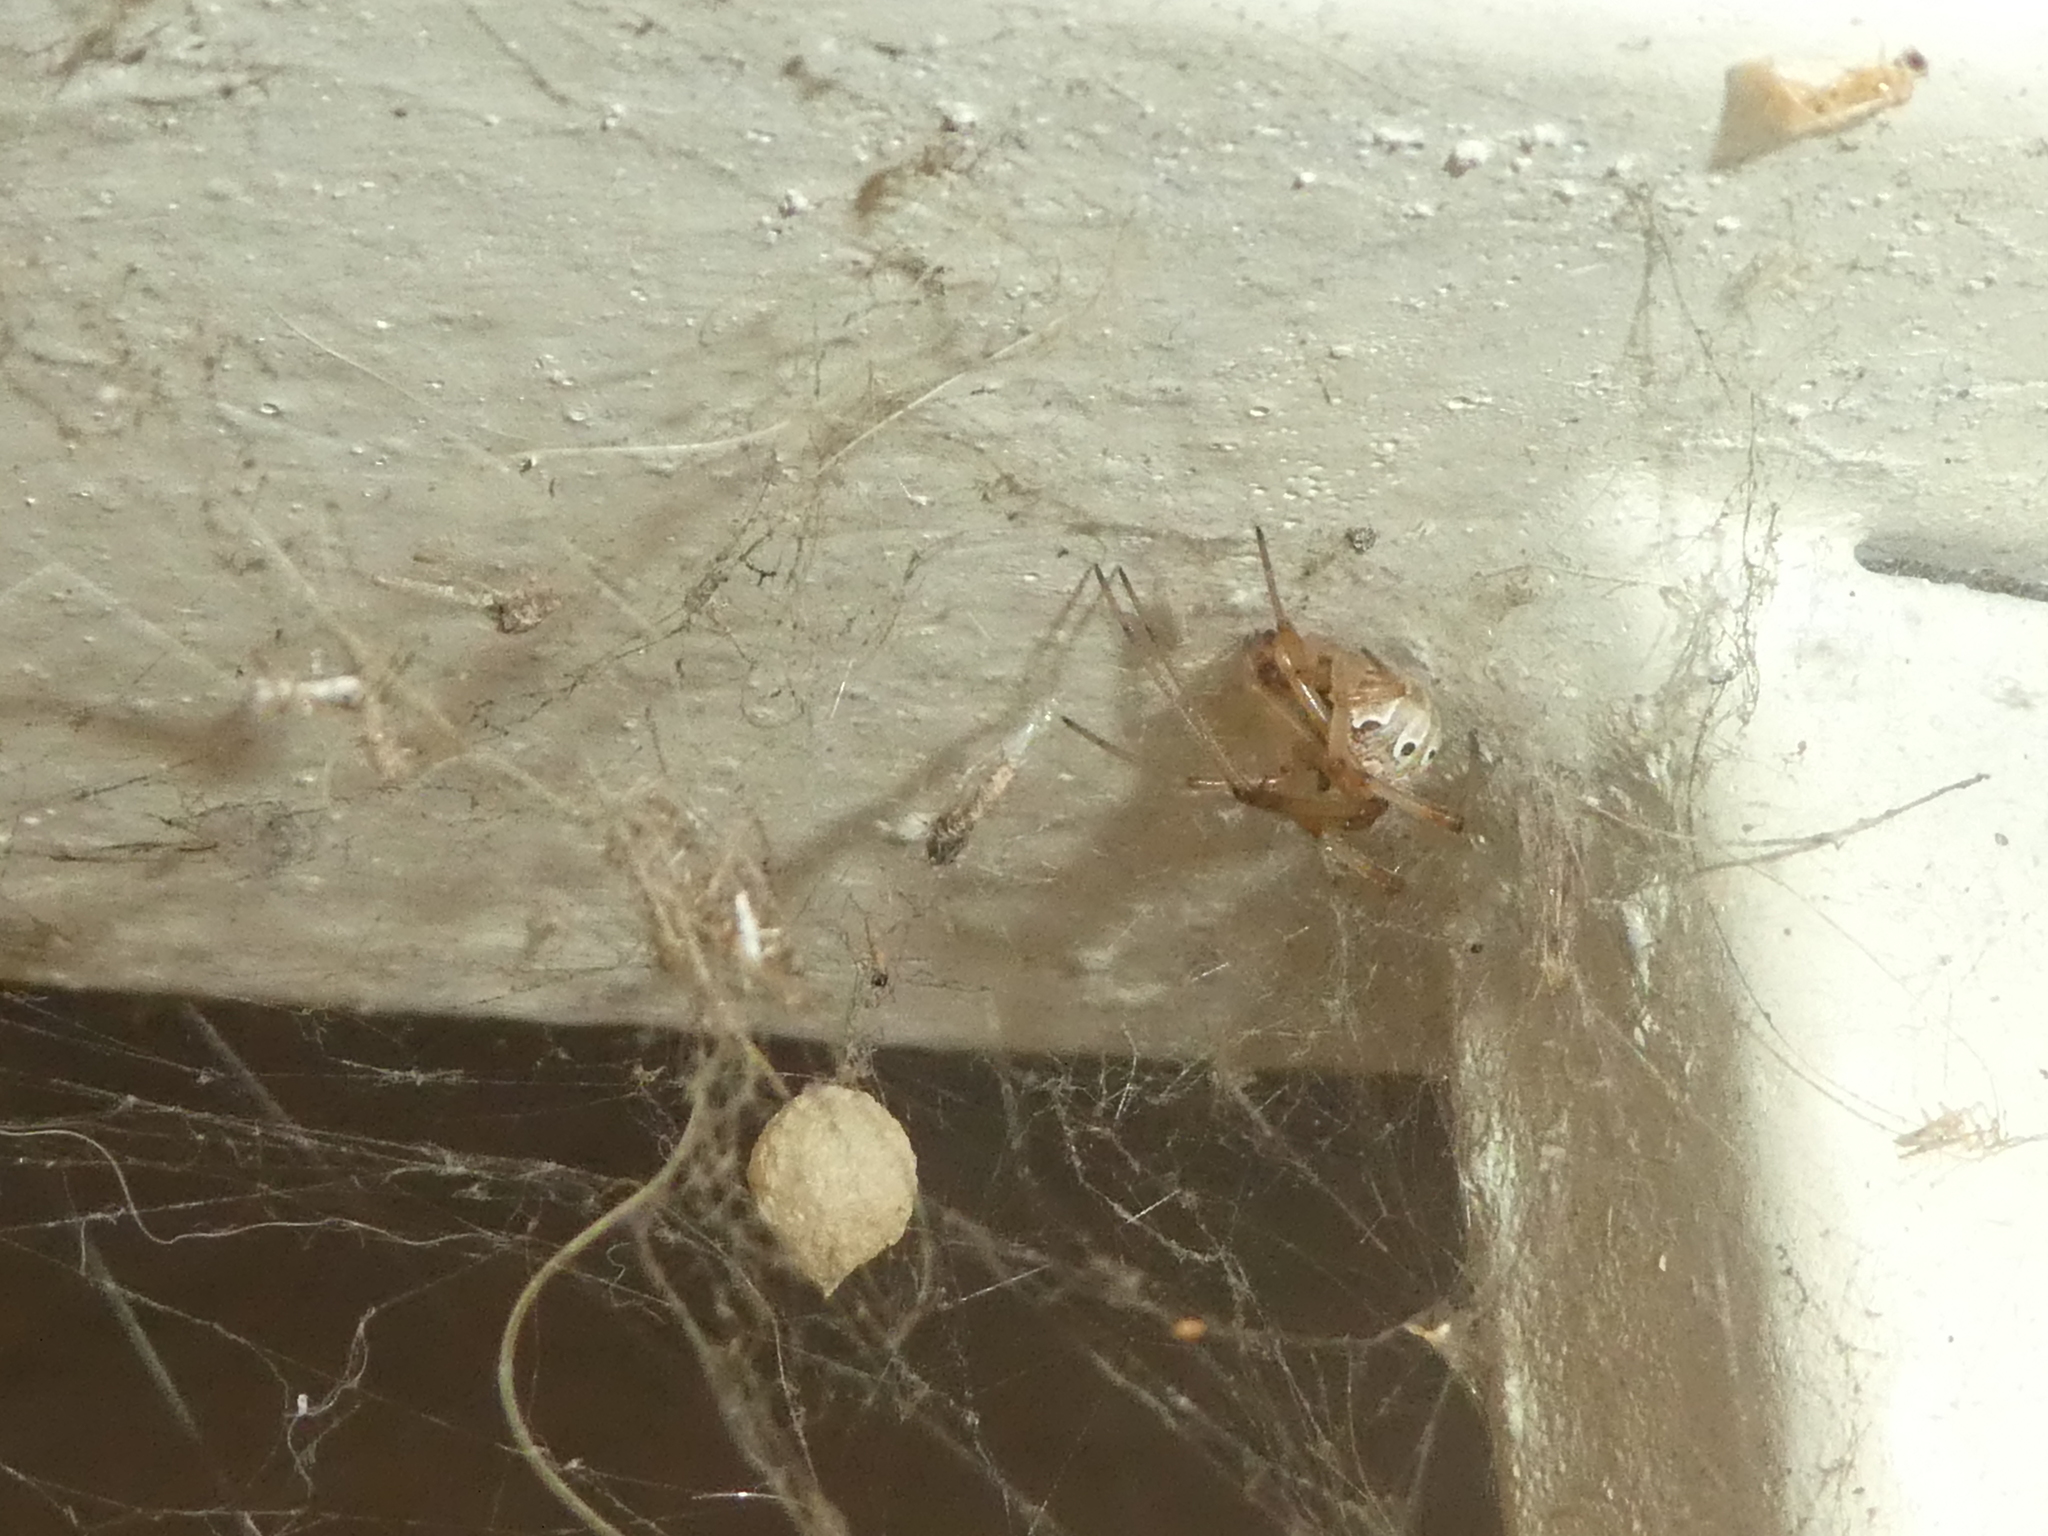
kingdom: Animalia
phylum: Arthropoda
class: Arachnida
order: Araneae
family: Theridiidae
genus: Latrodectus
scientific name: Latrodectus geometricus
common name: Brown widow spider
